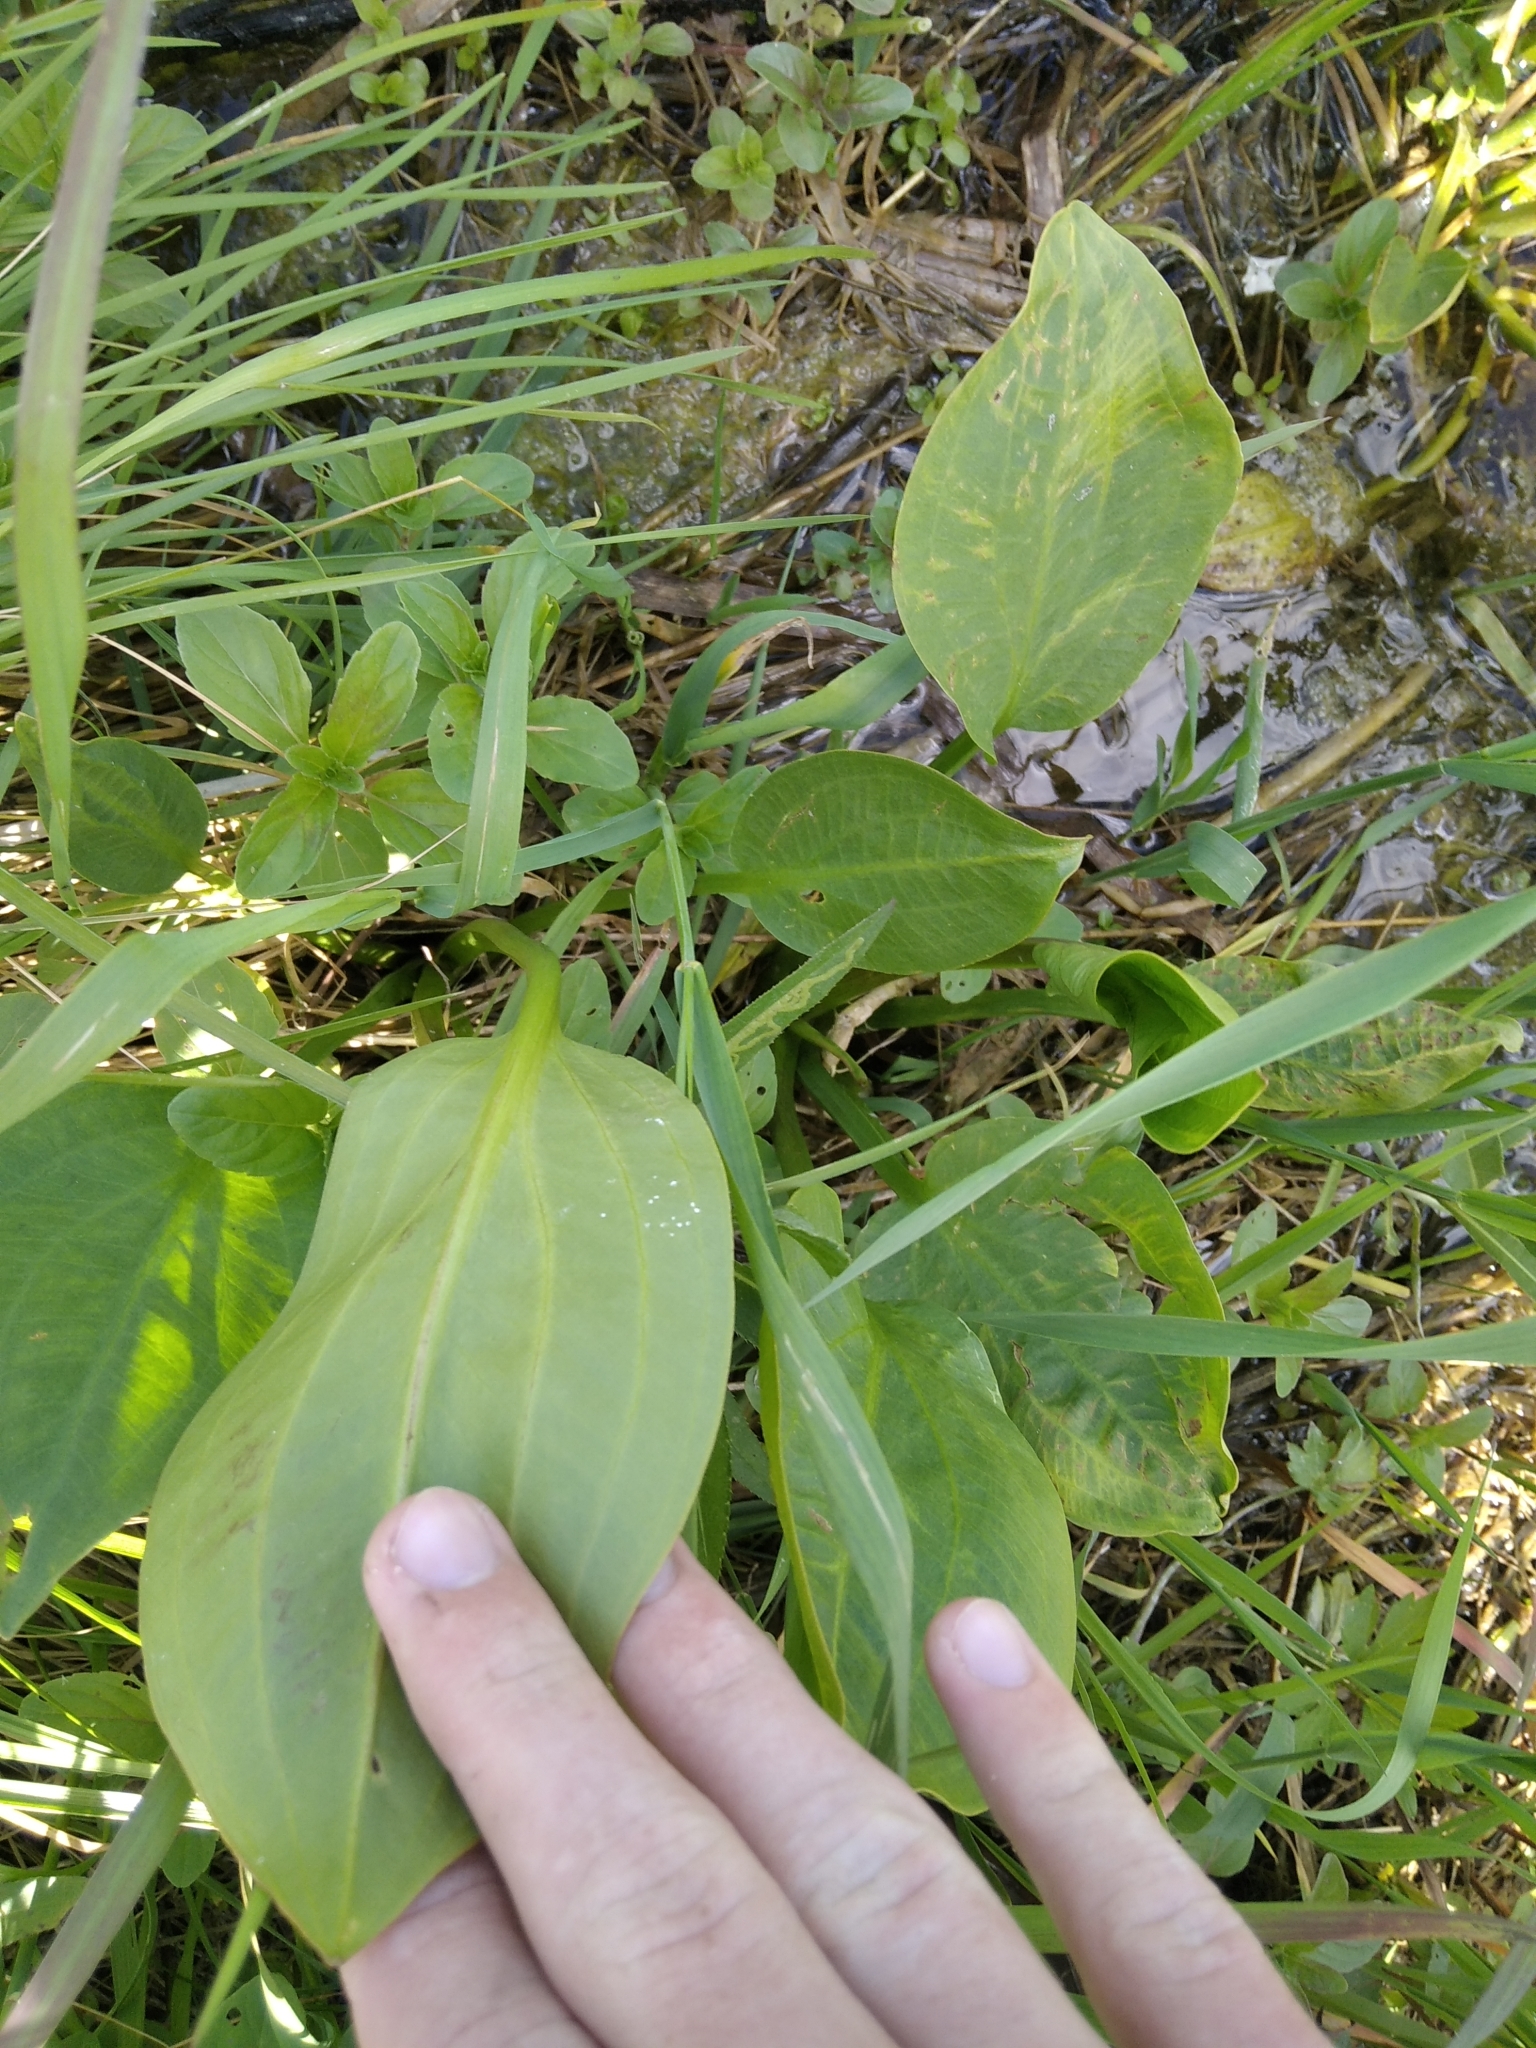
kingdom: Plantae
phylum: Tracheophyta
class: Liliopsida
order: Alismatales
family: Alismataceae
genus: Alisma
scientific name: Alisma plantago-aquatica
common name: Water-plantain
